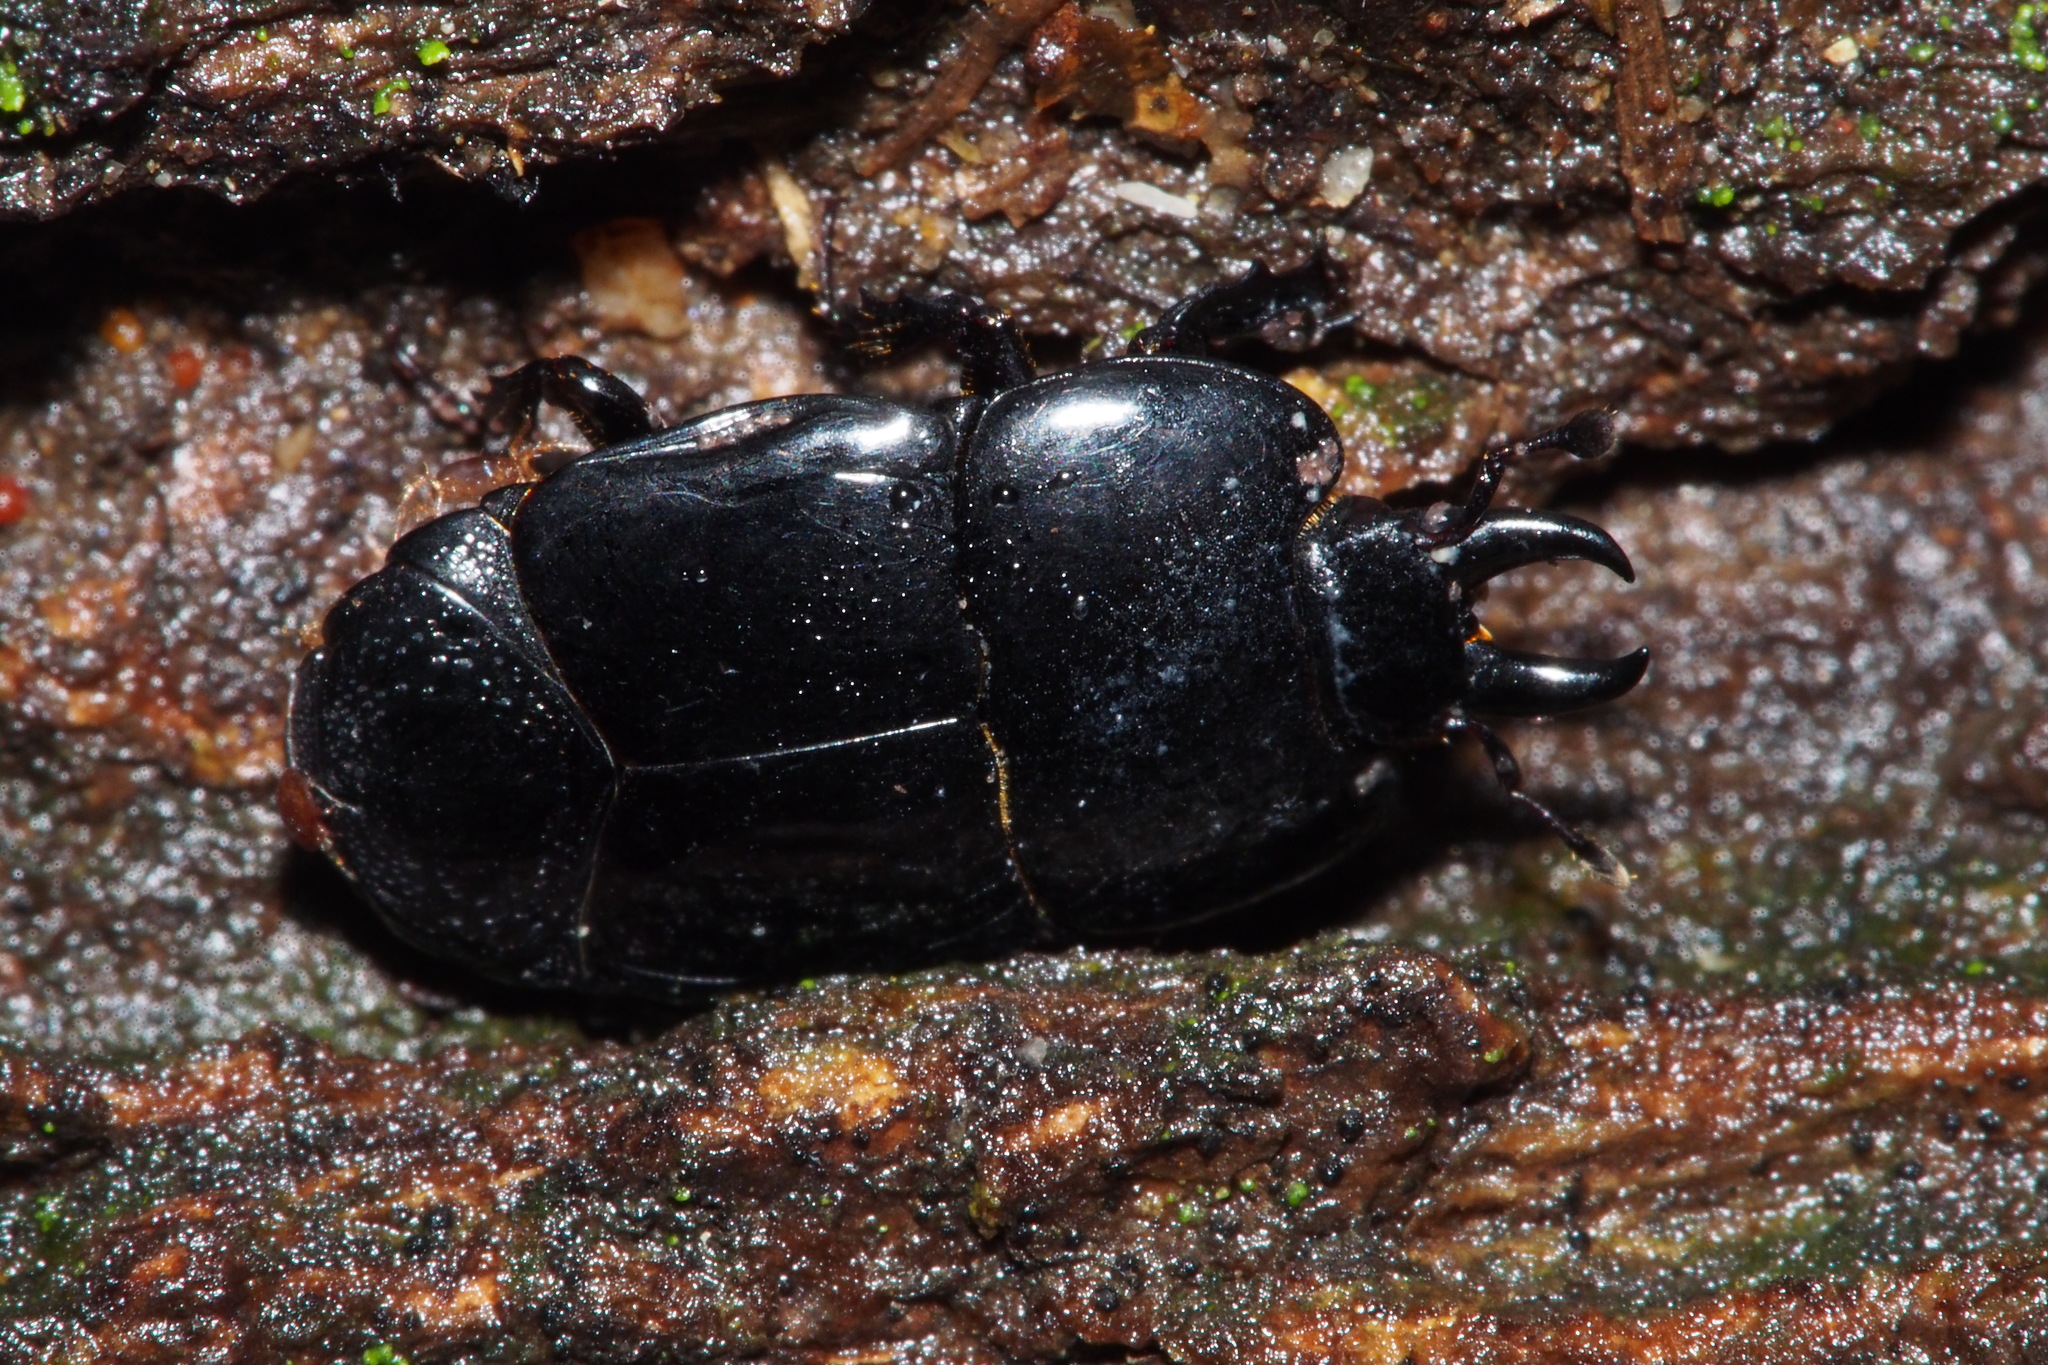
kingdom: Animalia
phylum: Arthropoda
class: Insecta
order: Coleoptera
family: Histeridae
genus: Hololepta
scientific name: Hololepta amurensis
